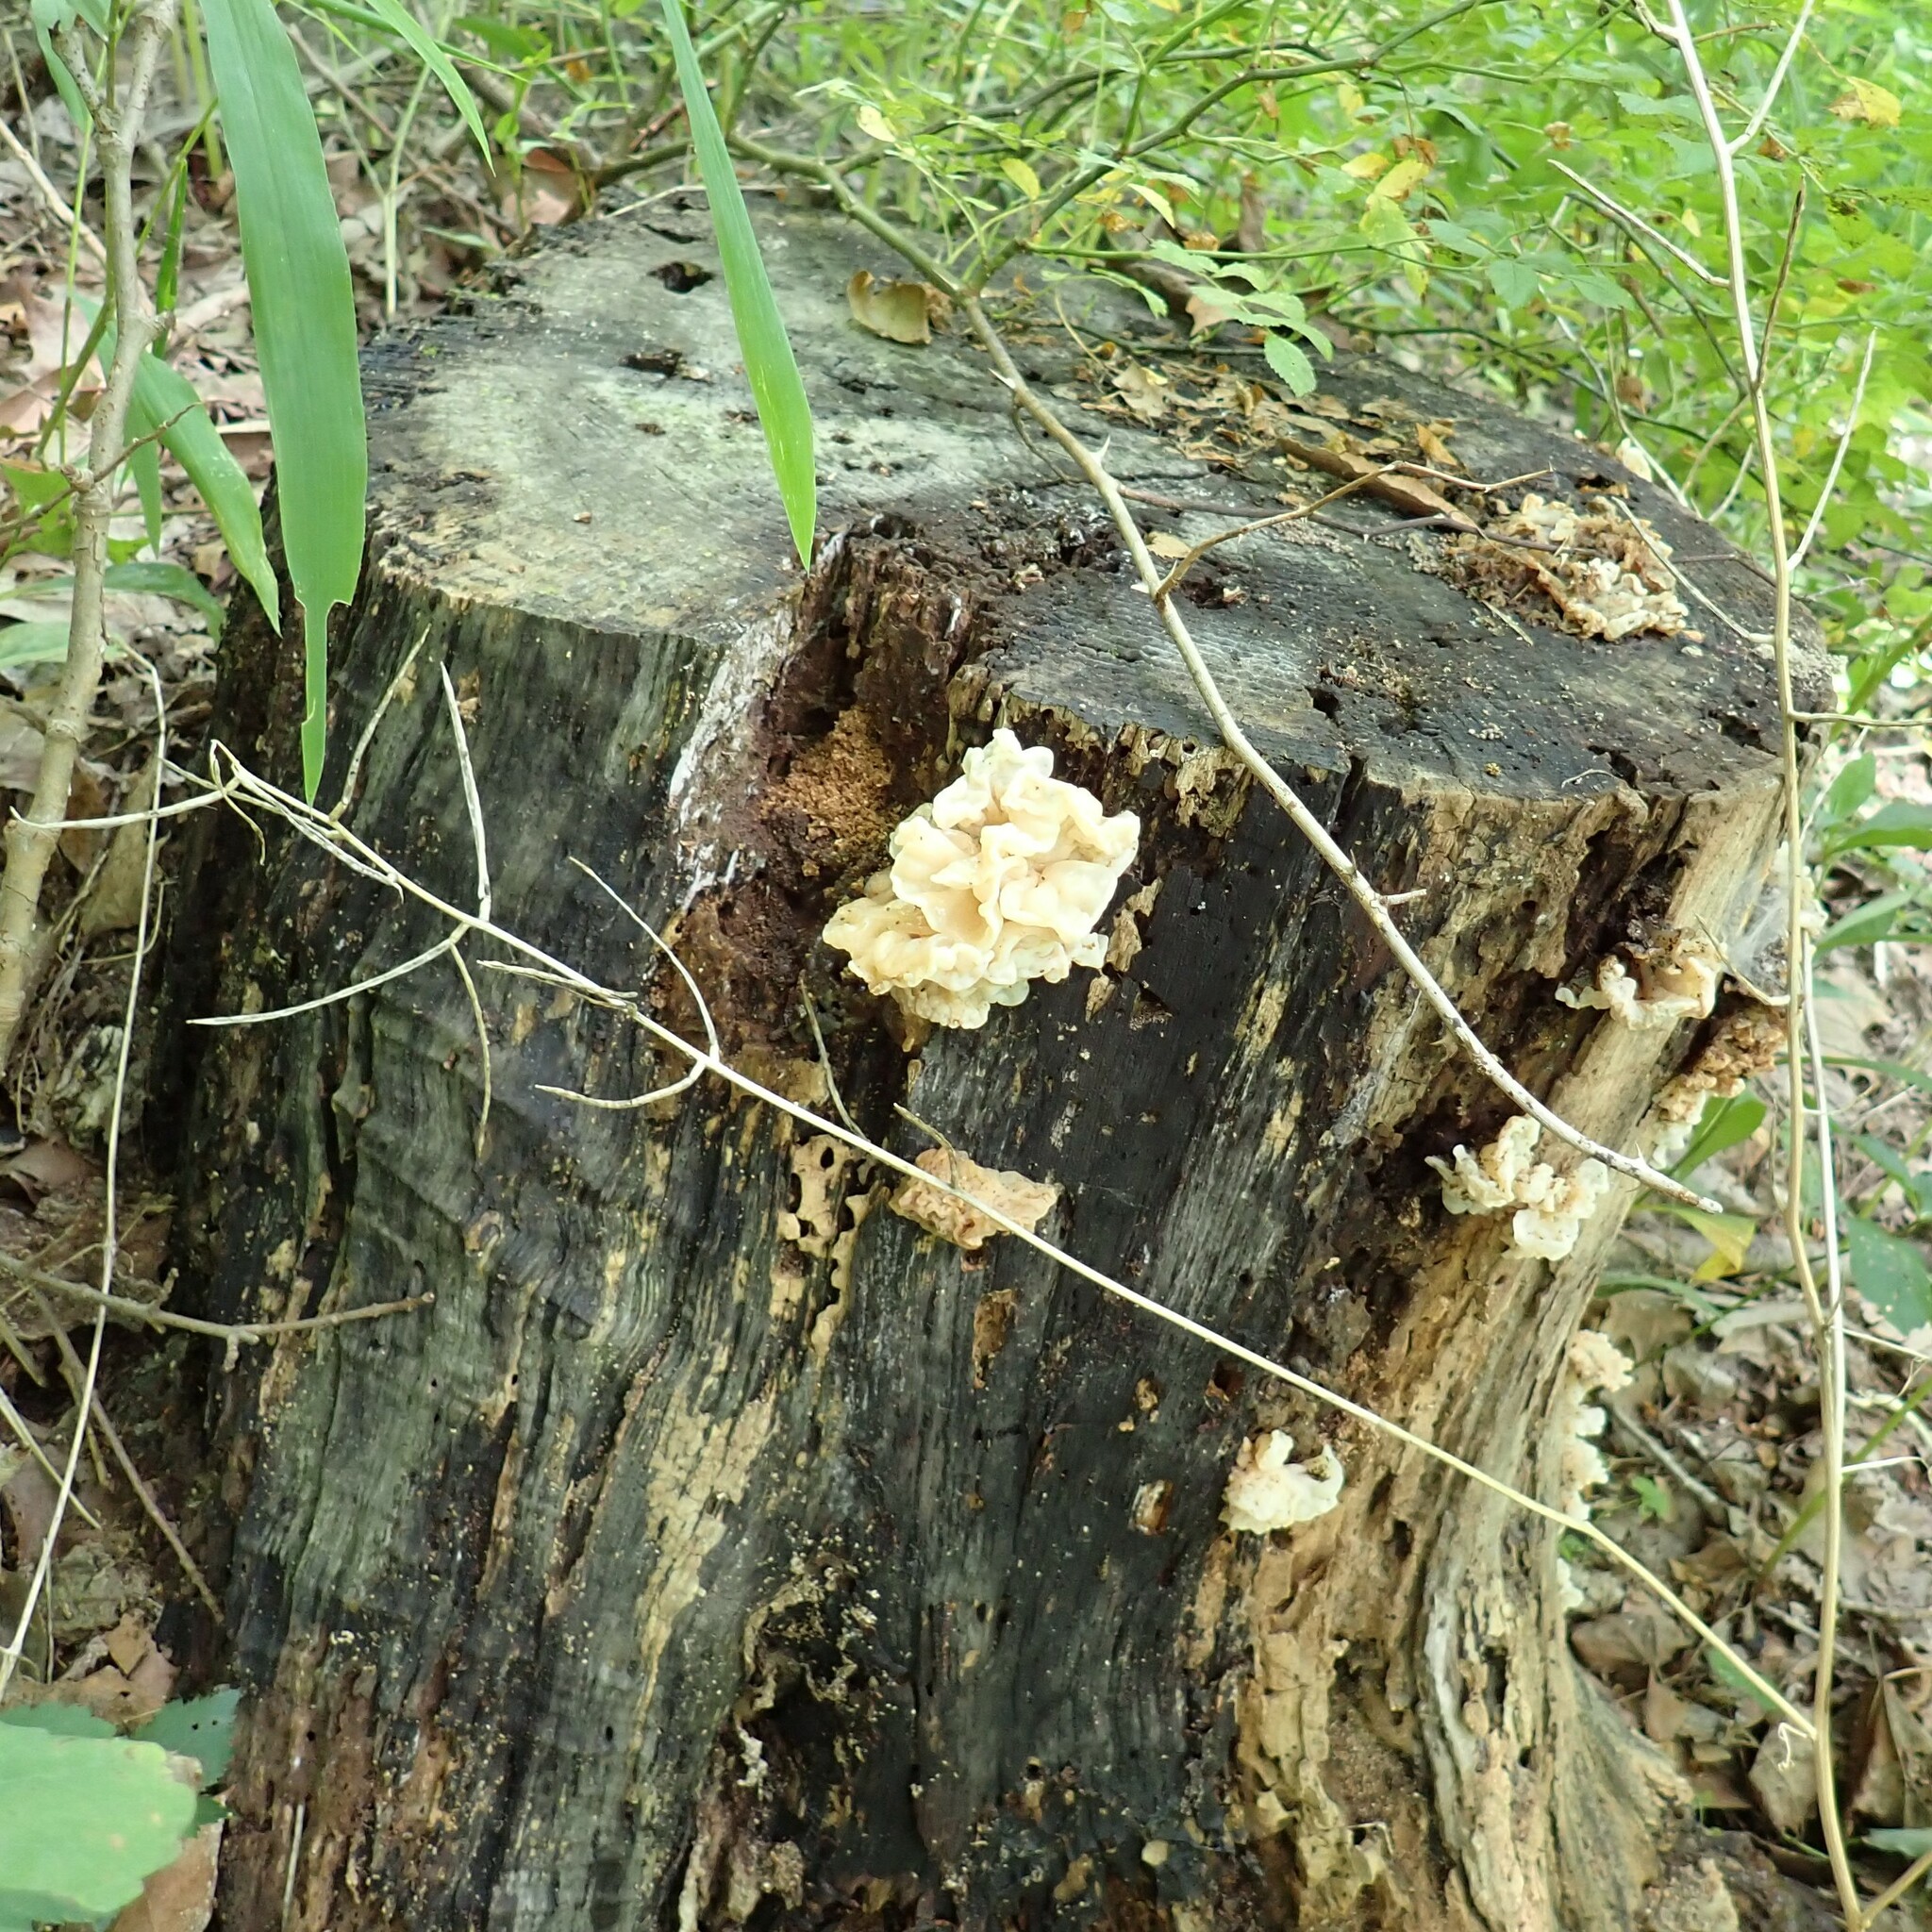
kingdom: Fungi
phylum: Basidiomycota
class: Agaricomycetes
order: Auriculariales
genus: Ductifera
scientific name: Ductifera pululahuana
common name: White jelly fungus
